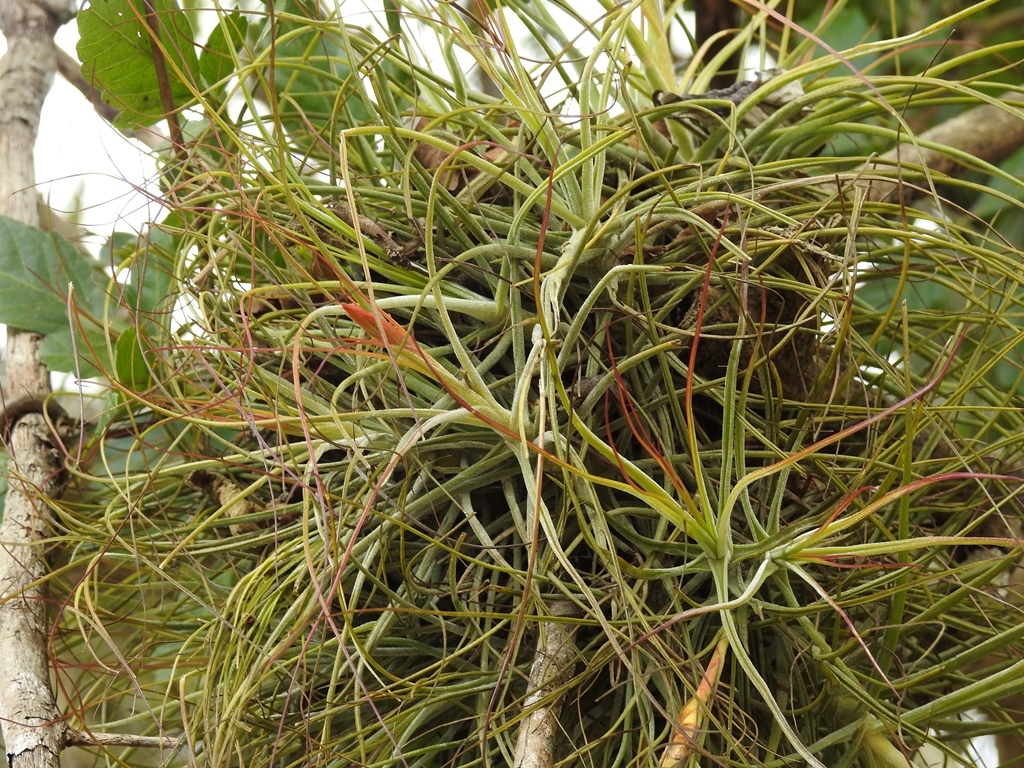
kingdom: Plantae
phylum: Tracheophyta
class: Liliopsida
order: Poales
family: Bromeliaceae
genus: Tillandsia
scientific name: Tillandsia schiedeana
